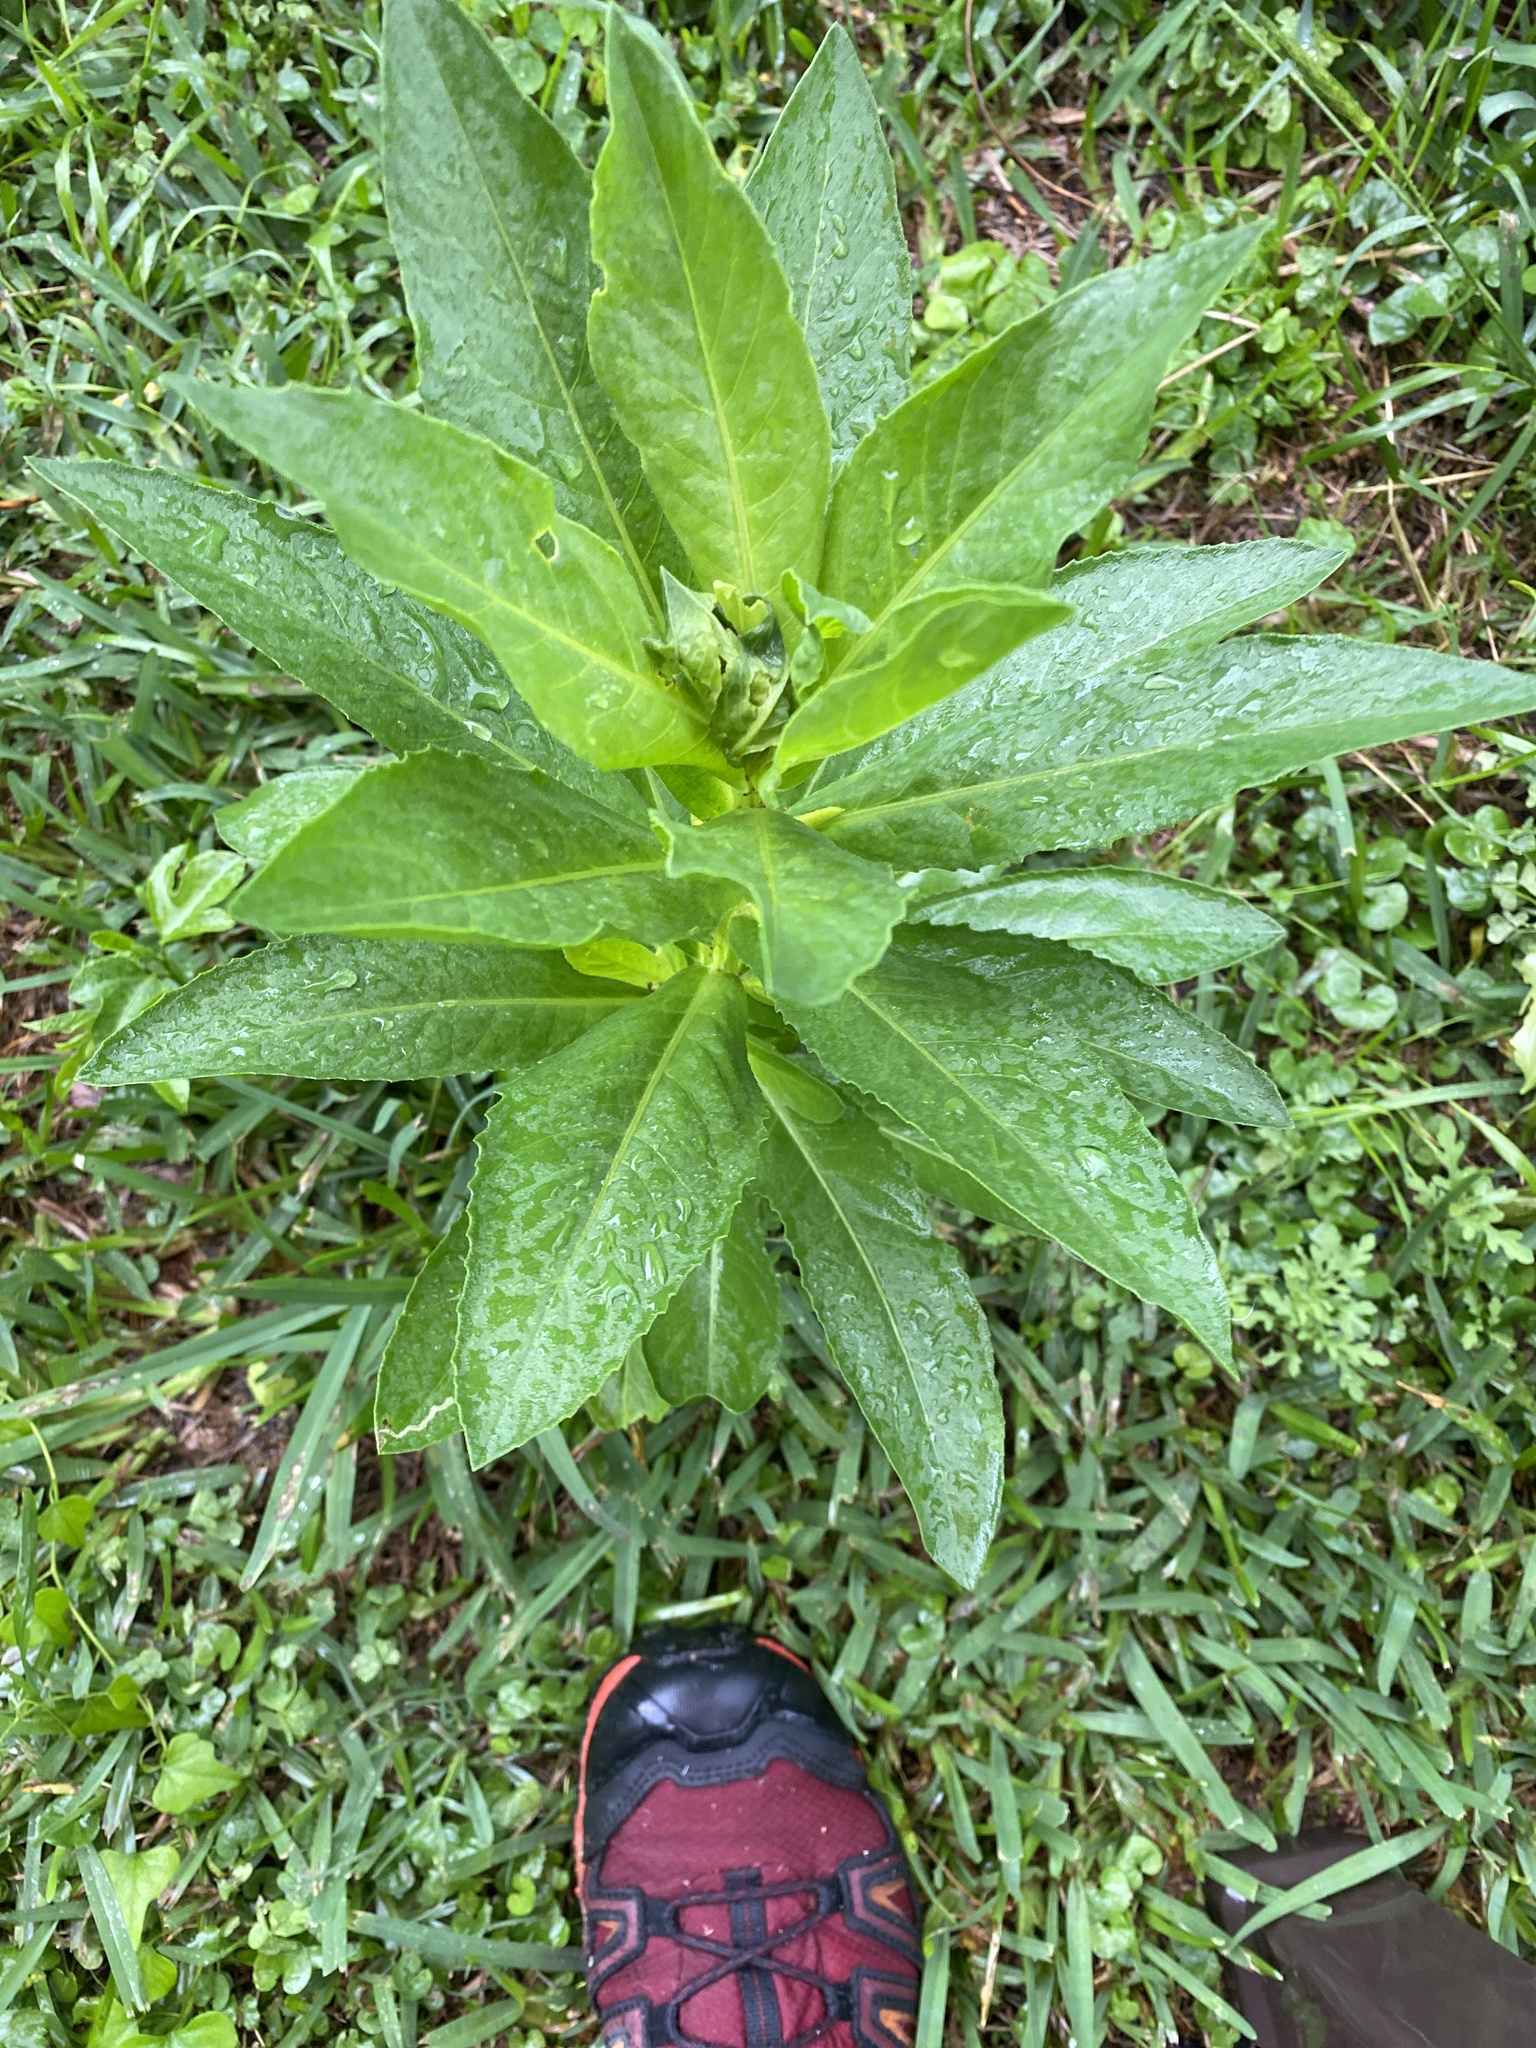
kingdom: Plantae
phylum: Tracheophyta
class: Magnoliopsida
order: Asterales
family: Asteraceae
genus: Plectocephalus
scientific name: Plectocephalus americanus
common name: American basket-flower
